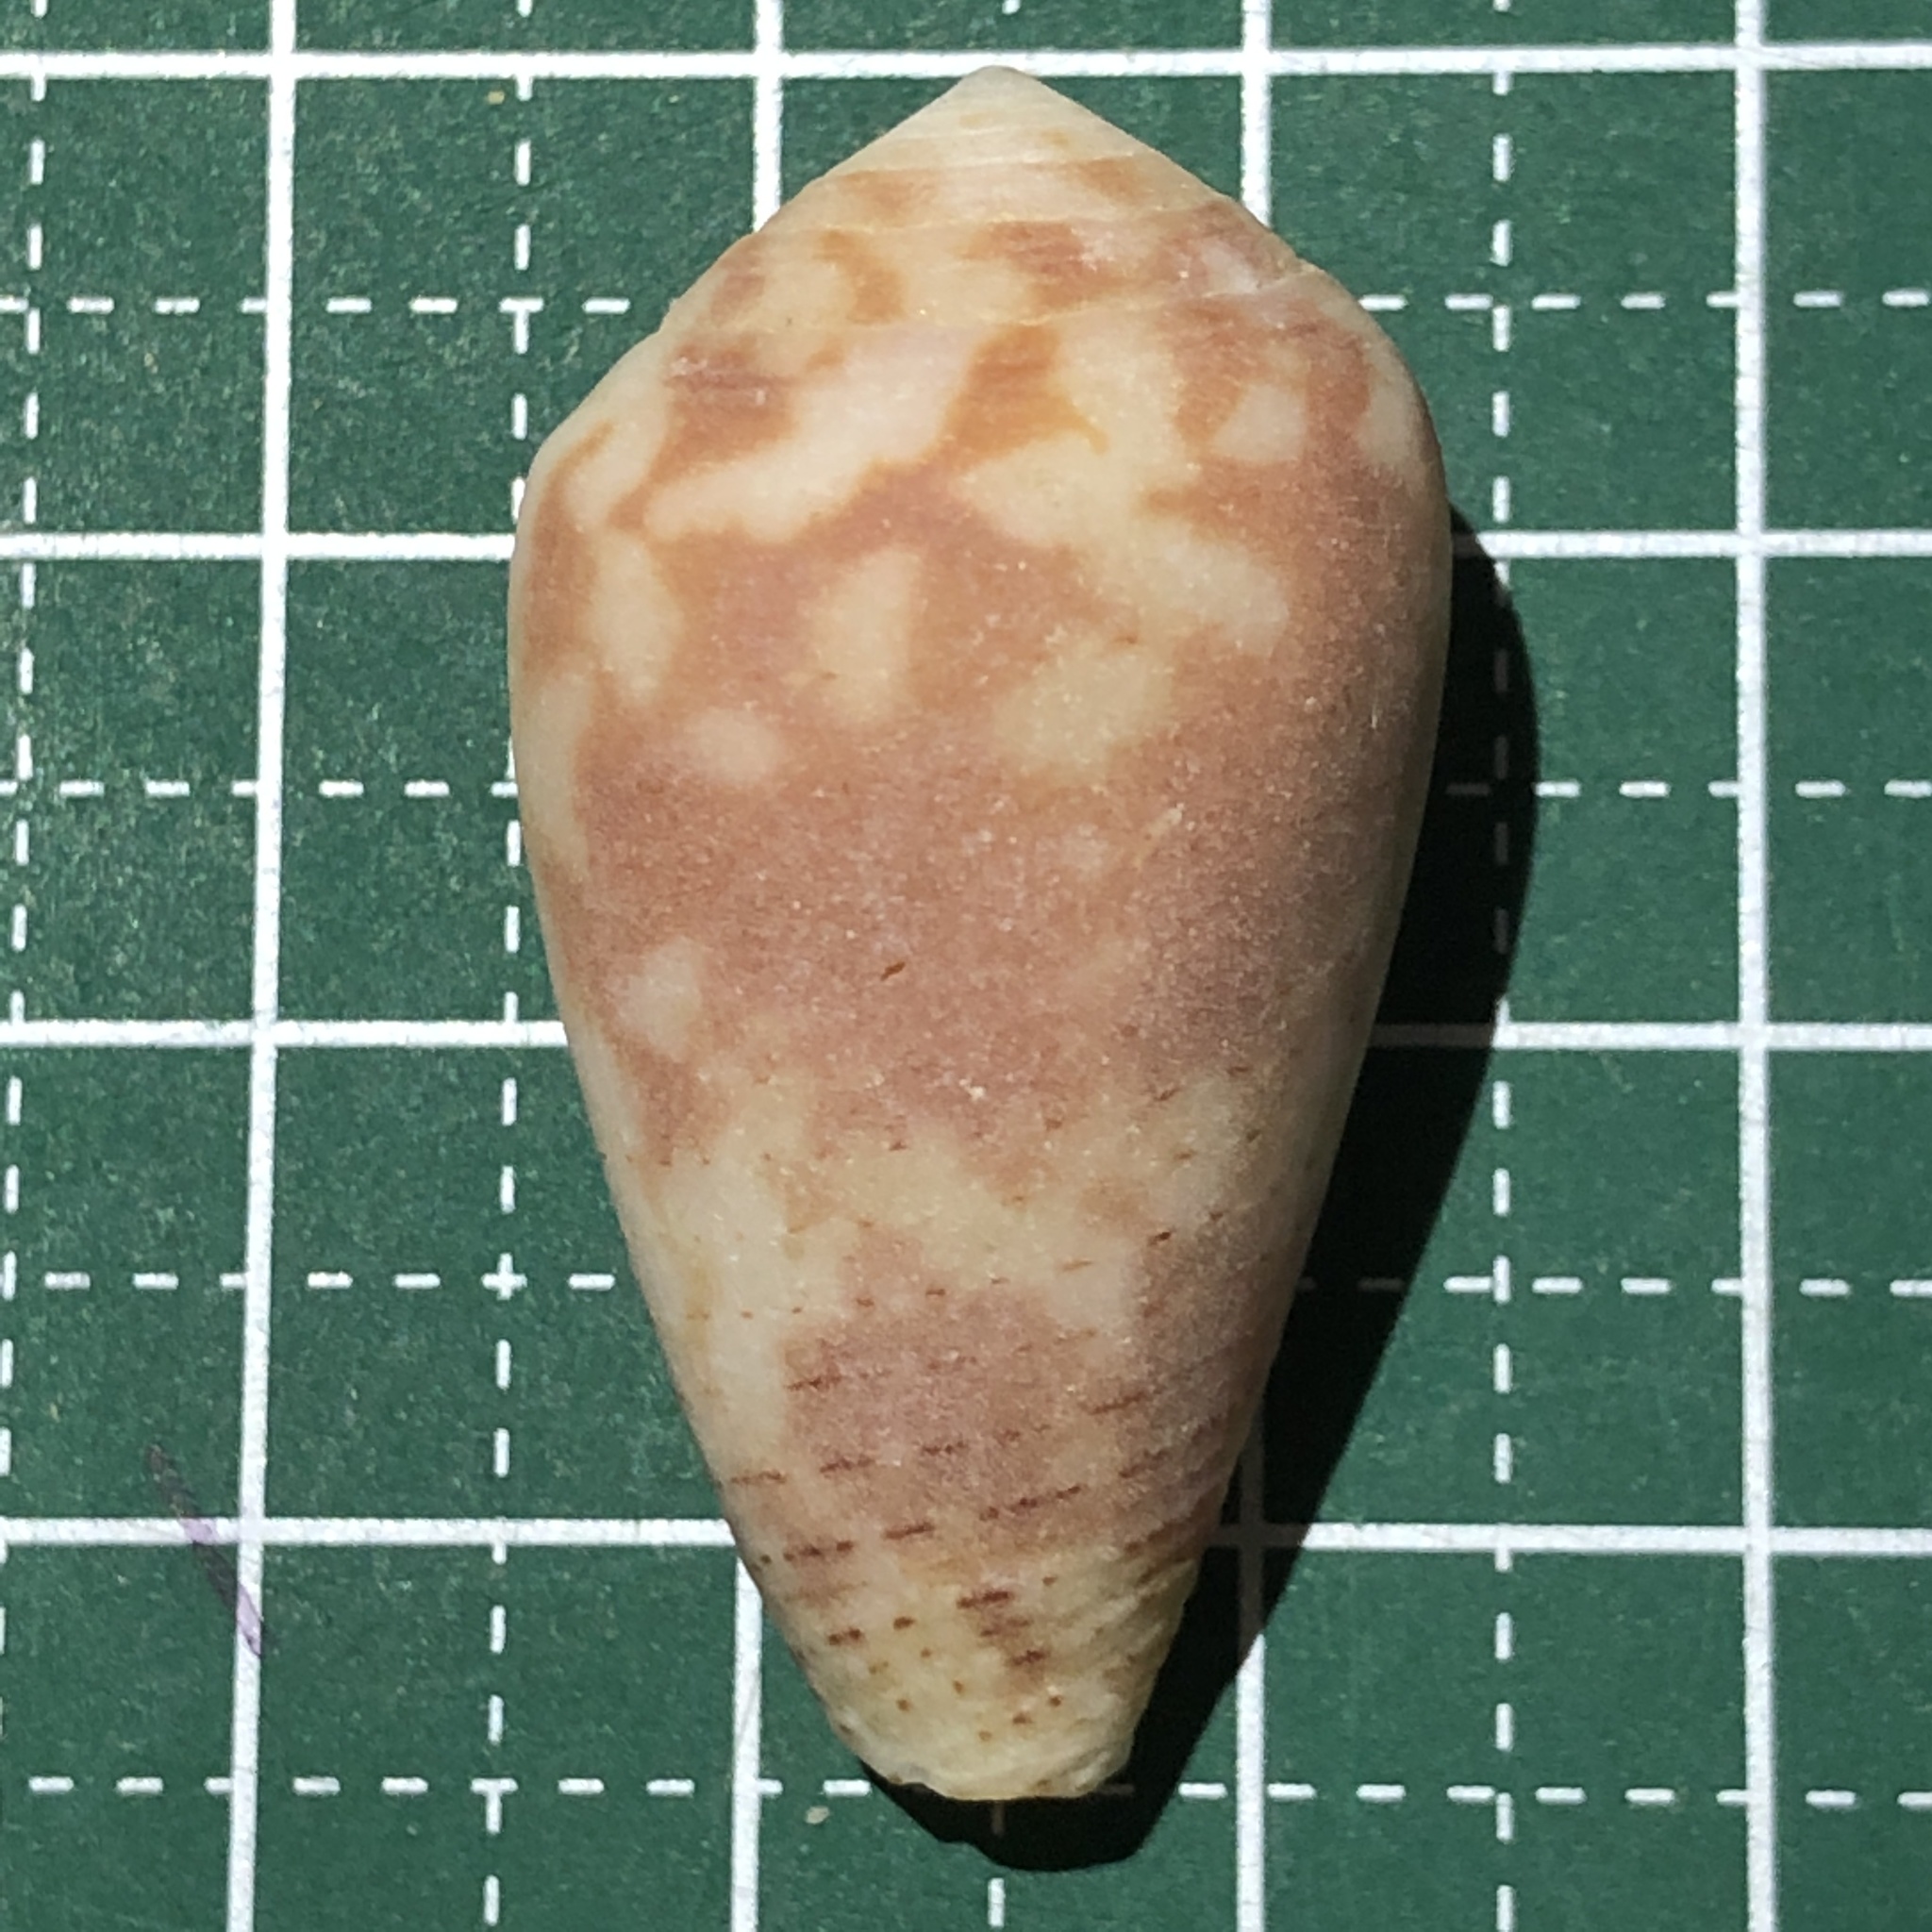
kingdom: Animalia
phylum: Mollusca
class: Gastropoda
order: Neogastropoda
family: Conidae
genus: Conus
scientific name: Conus striolatus
